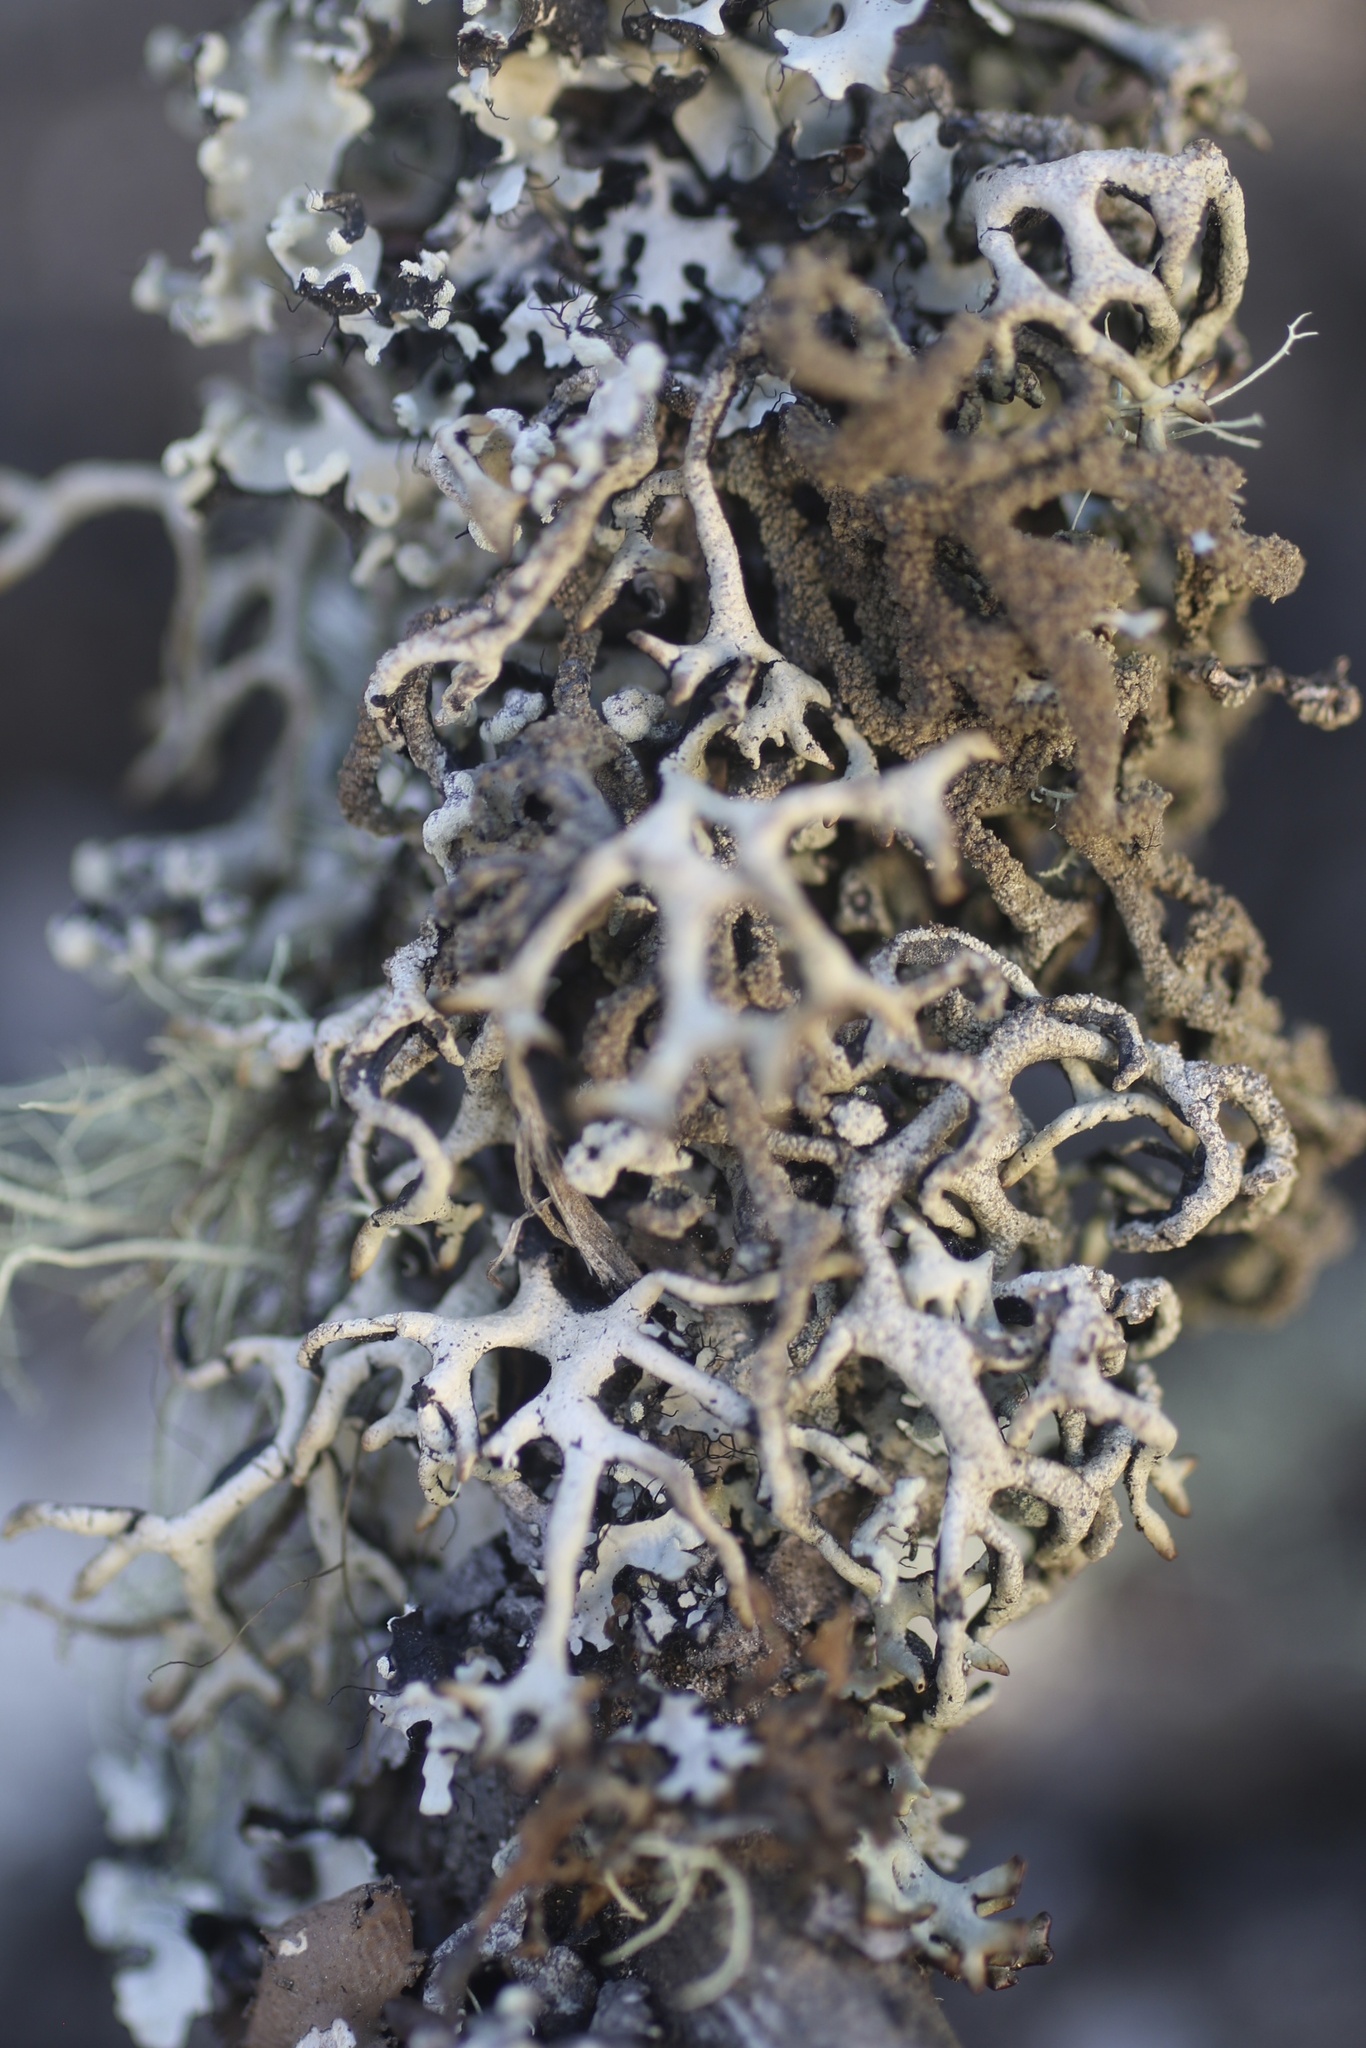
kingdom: Fungi
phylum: Ascomycota
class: Lecanoromycetes
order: Lecanorales
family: Parmeliaceae
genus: Hypogymnia
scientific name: Hypogymnia schizidiata
